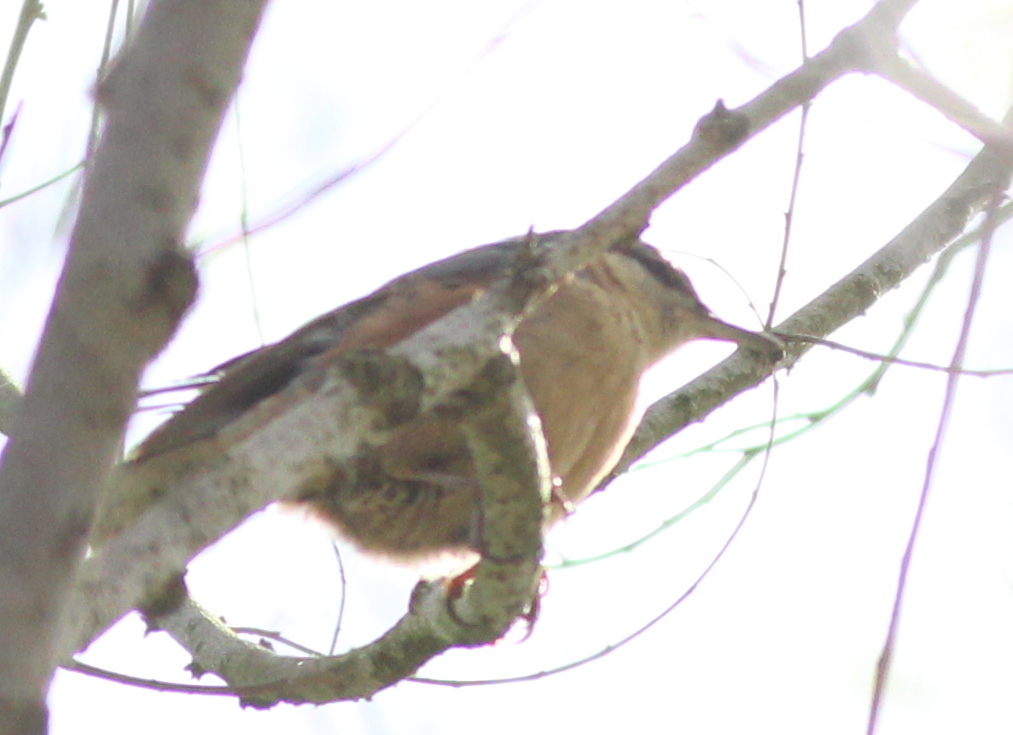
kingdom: Animalia
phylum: Chordata
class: Aves
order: Passeriformes
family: Sittidae
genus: Sitta
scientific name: Sitta europaea
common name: Eurasian nuthatch
